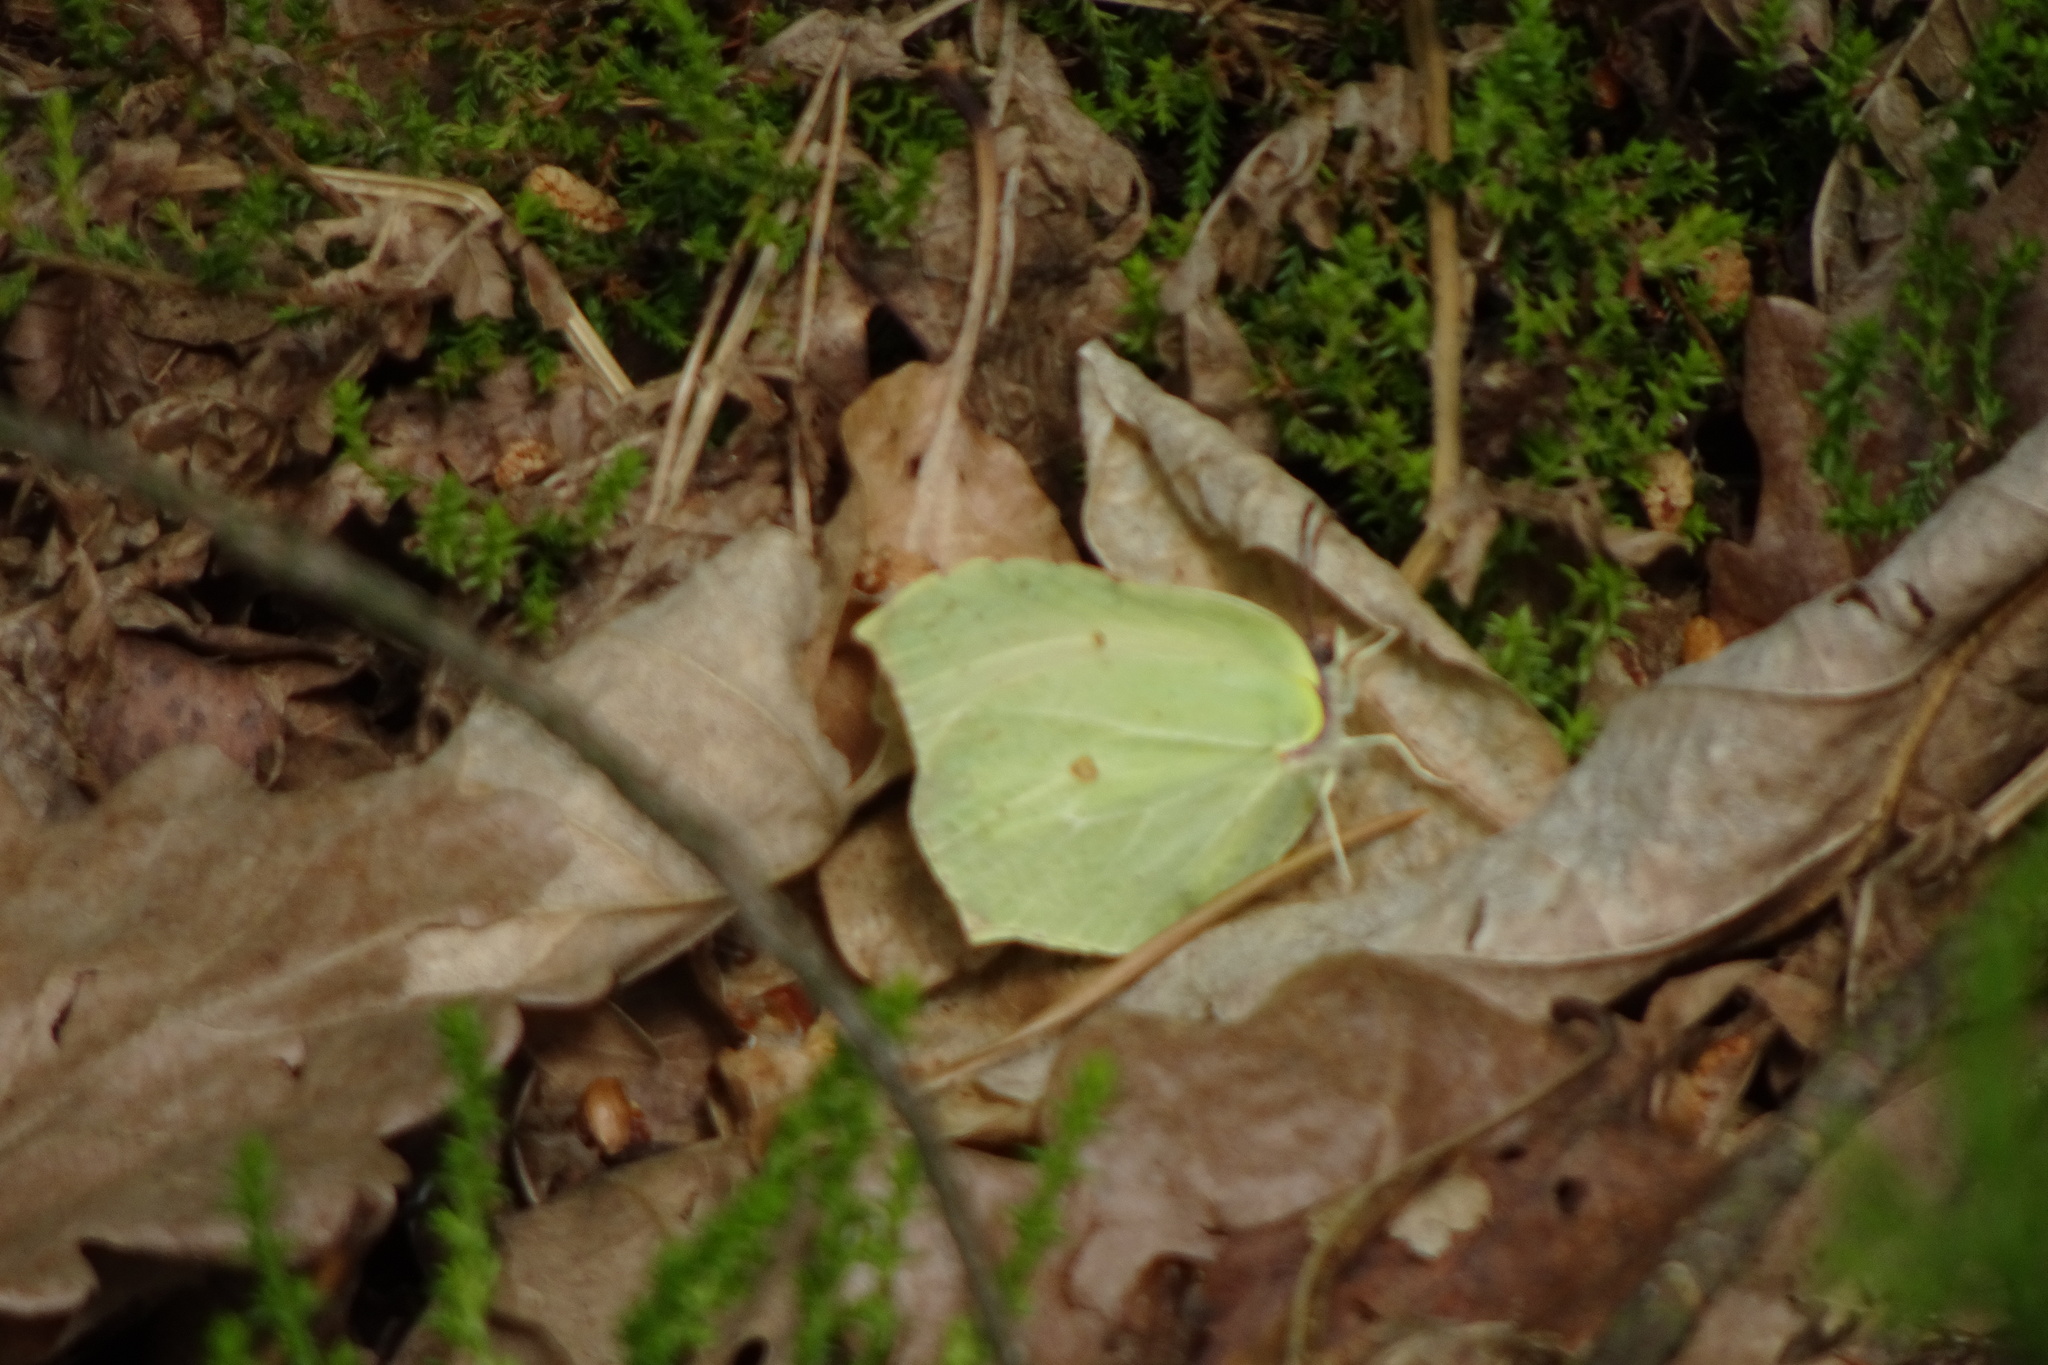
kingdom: Animalia
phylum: Arthropoda
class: Insecta
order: Lepidoptera
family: Pieridae
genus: Gonepteryx
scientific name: Gonepteryx rhamni
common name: Brimstone
